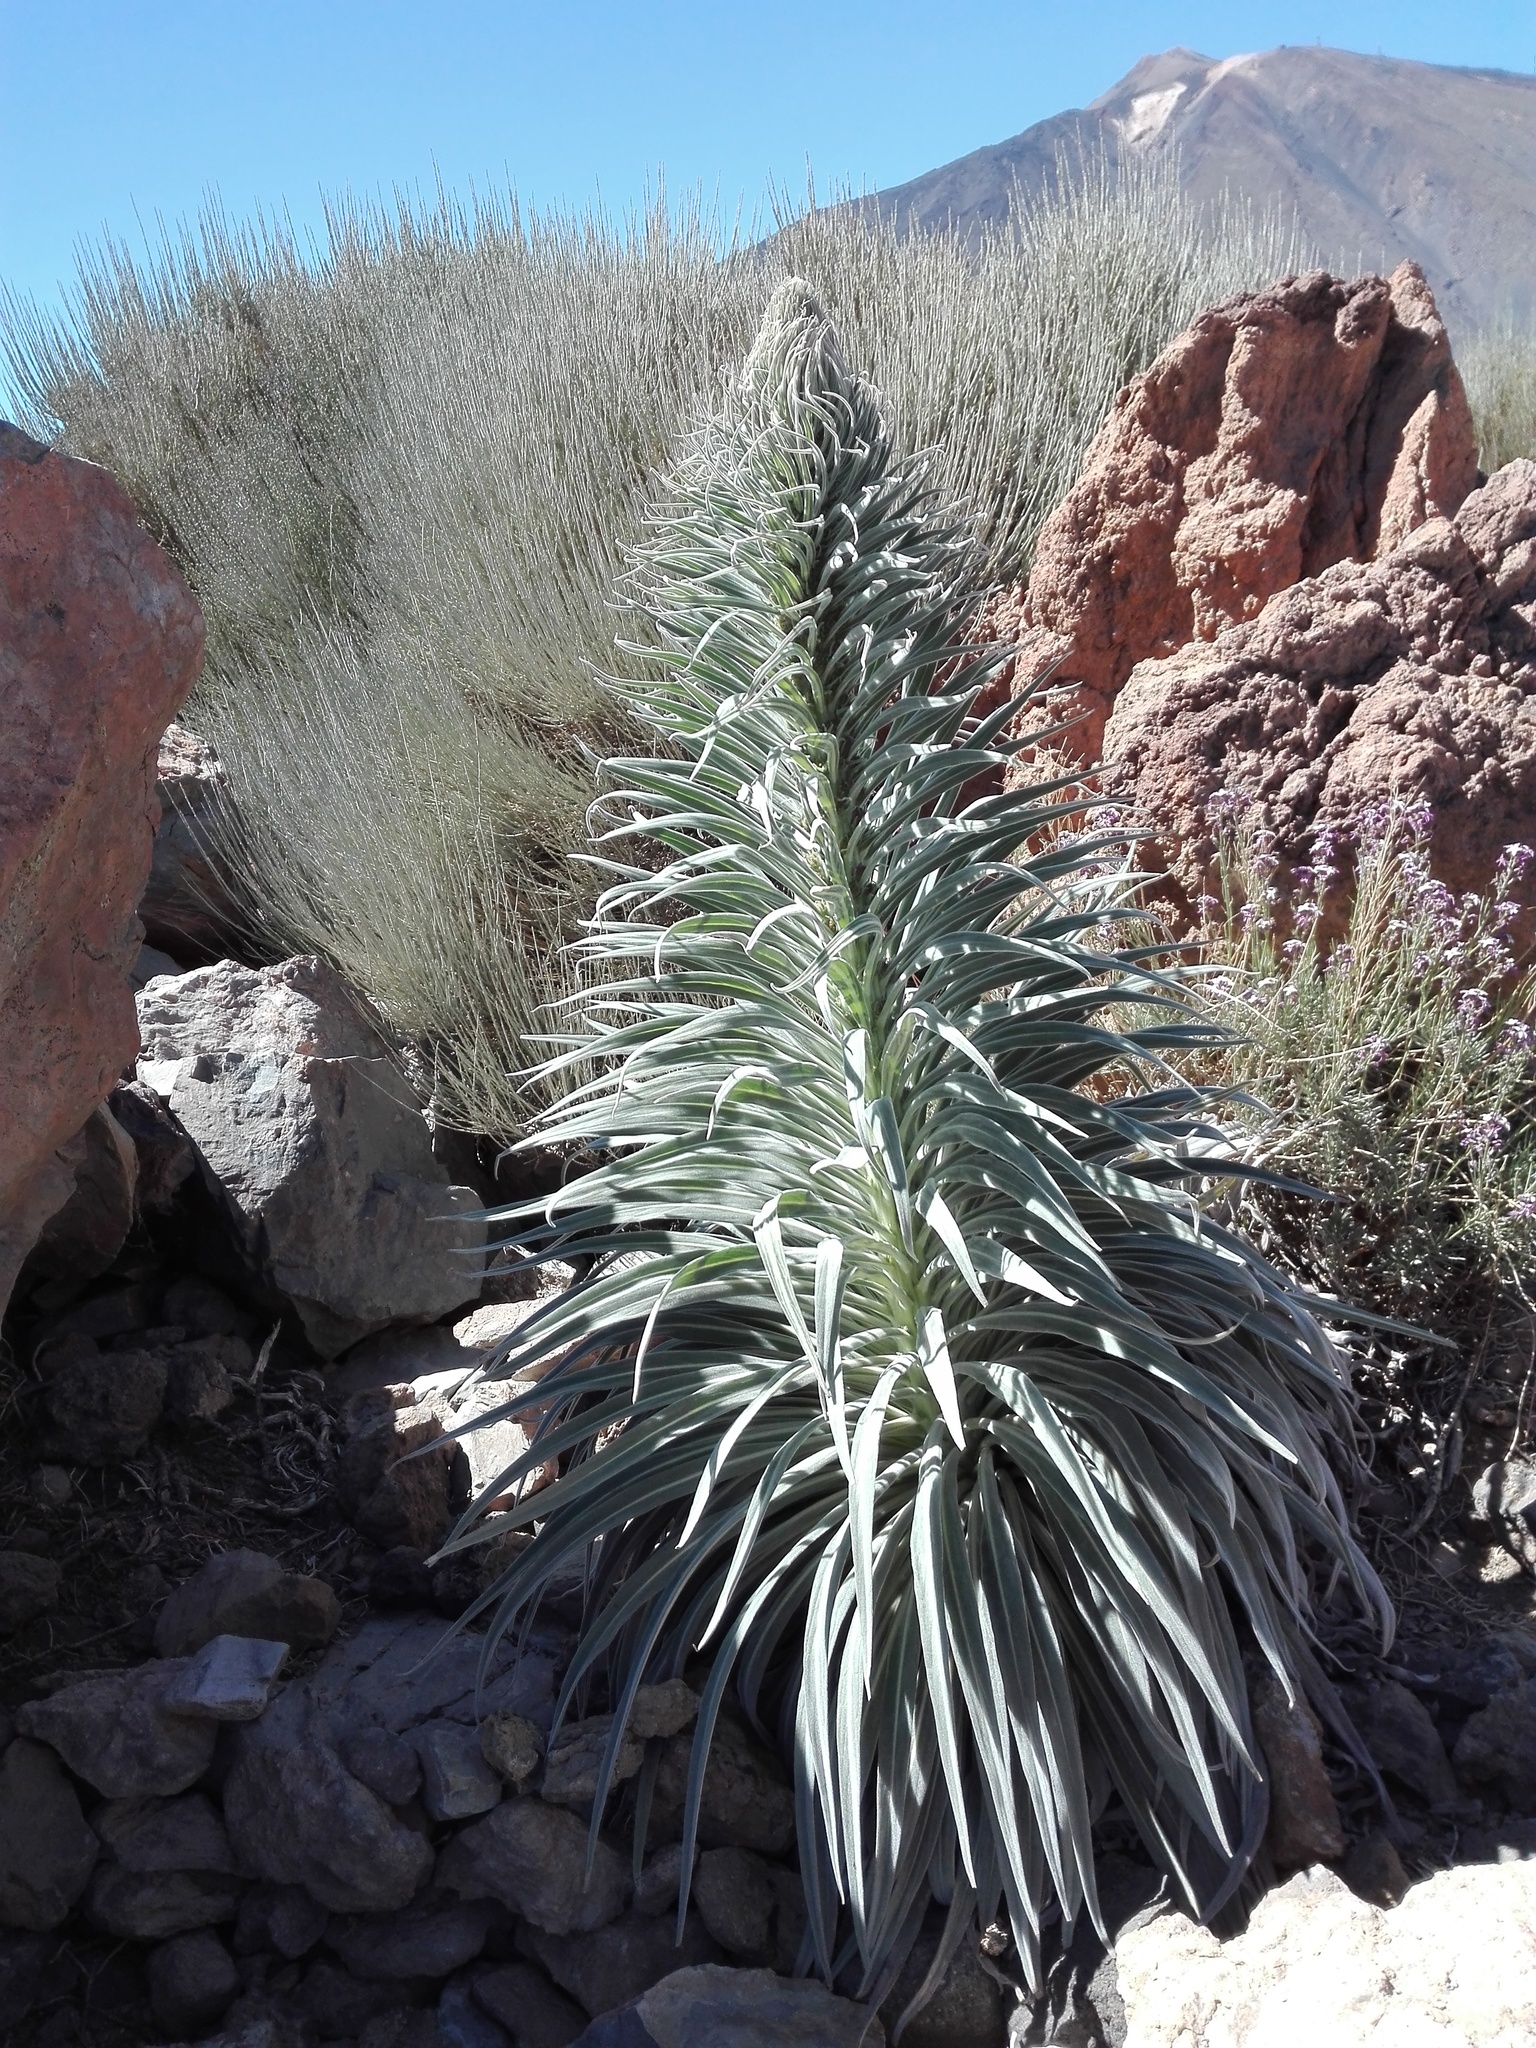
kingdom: Plantae
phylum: Tracheophyta
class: Magnoliopsida
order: Boraginales
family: Boraginaceae
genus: Echium
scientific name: Echium wildpretii
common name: Tower-of-jewels
